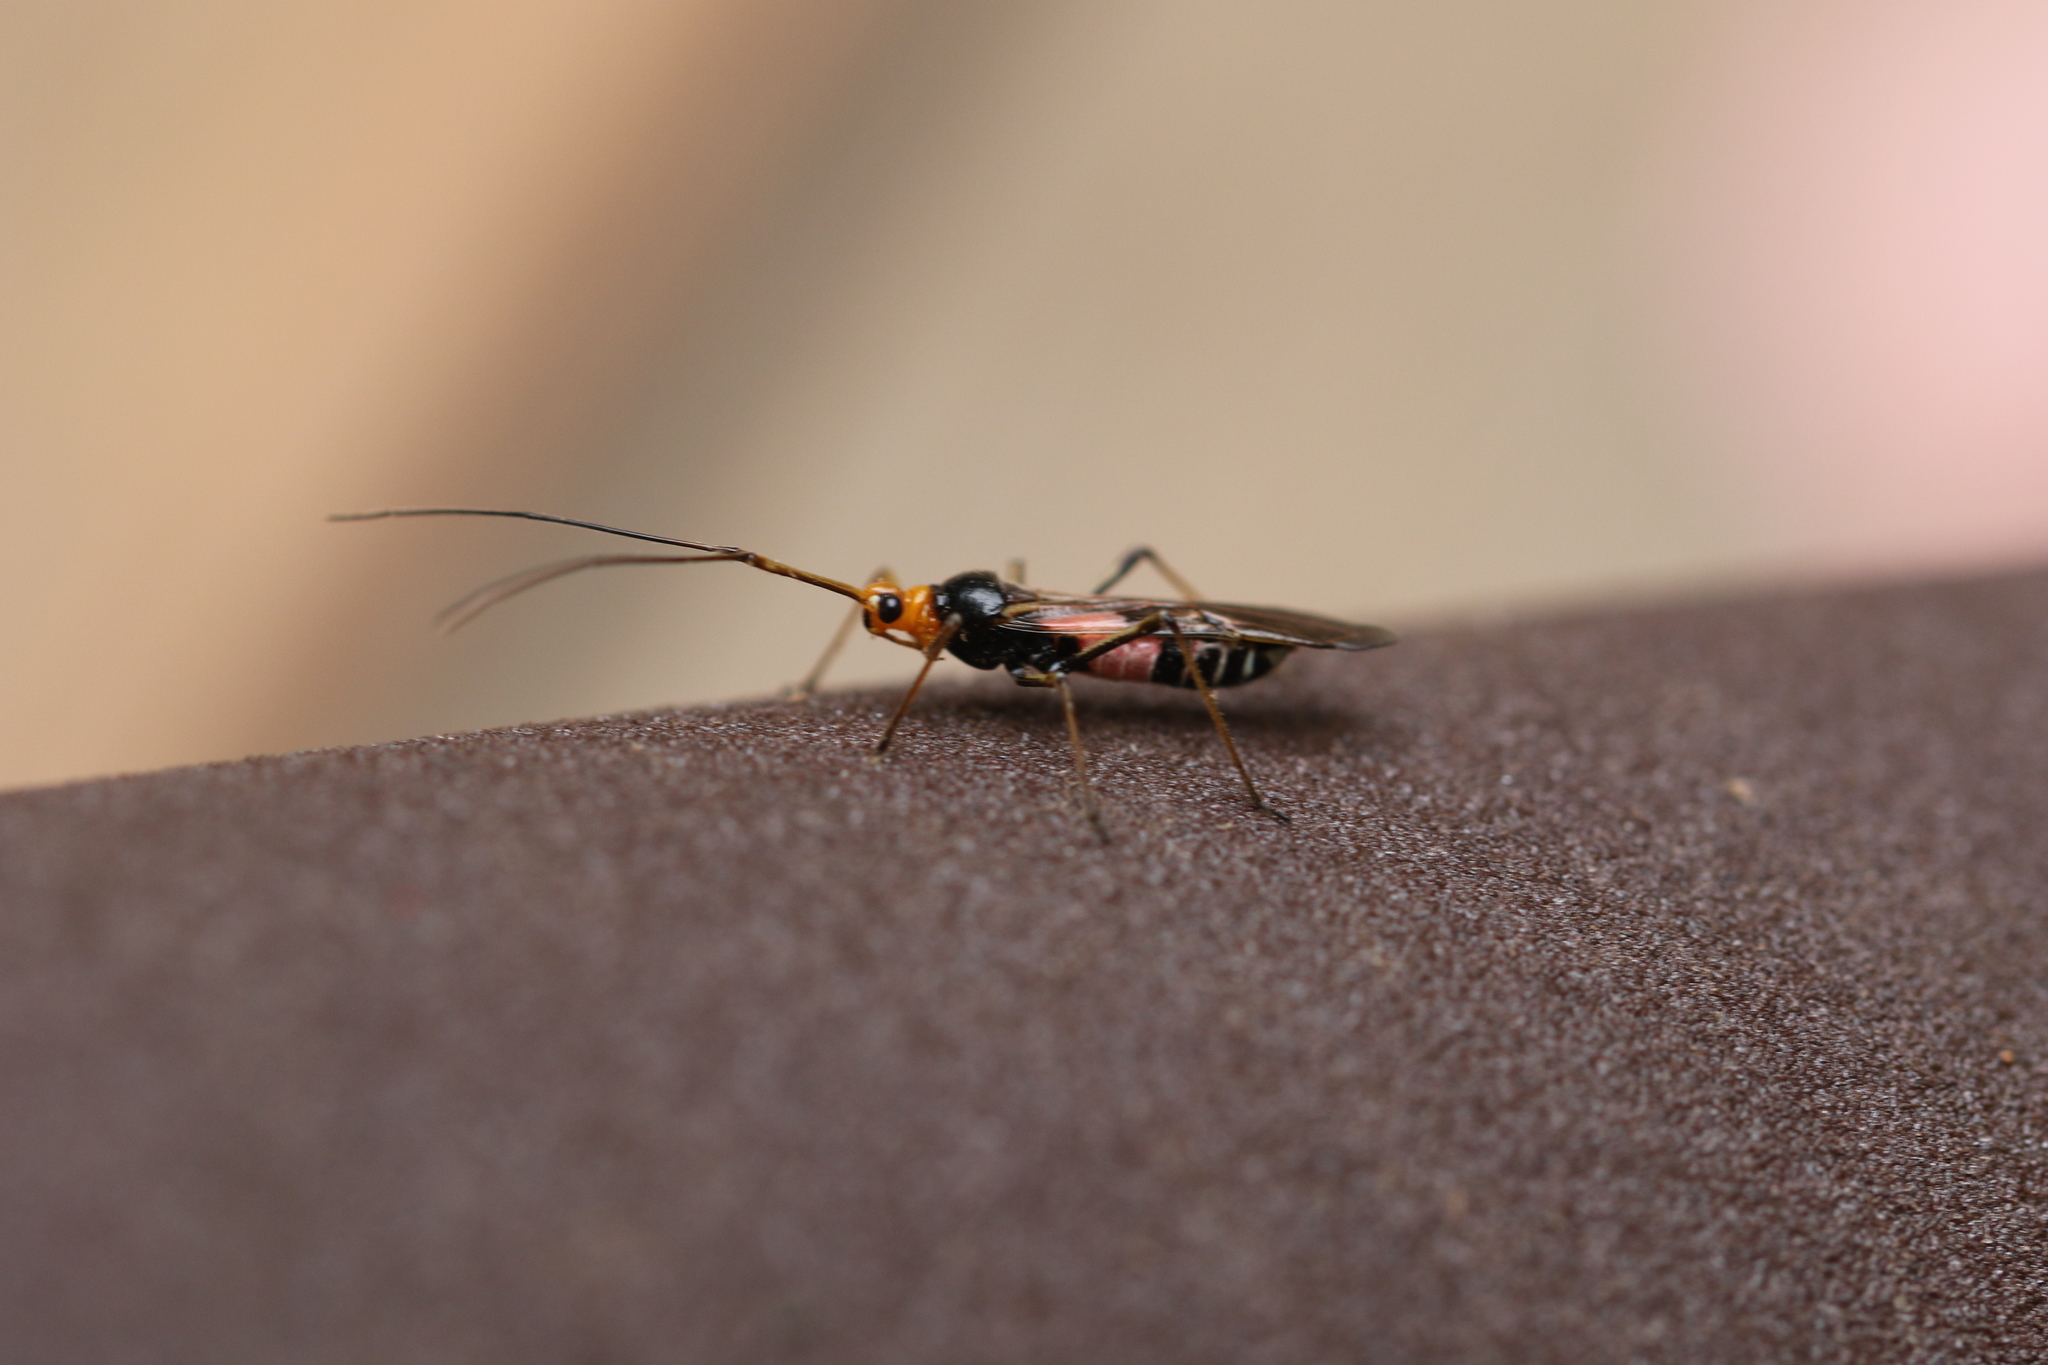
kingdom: Animalia
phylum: Arthropoda
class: Insecta
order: Hemiptera
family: Miridae
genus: Rayieria
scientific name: Rayieria basifer
